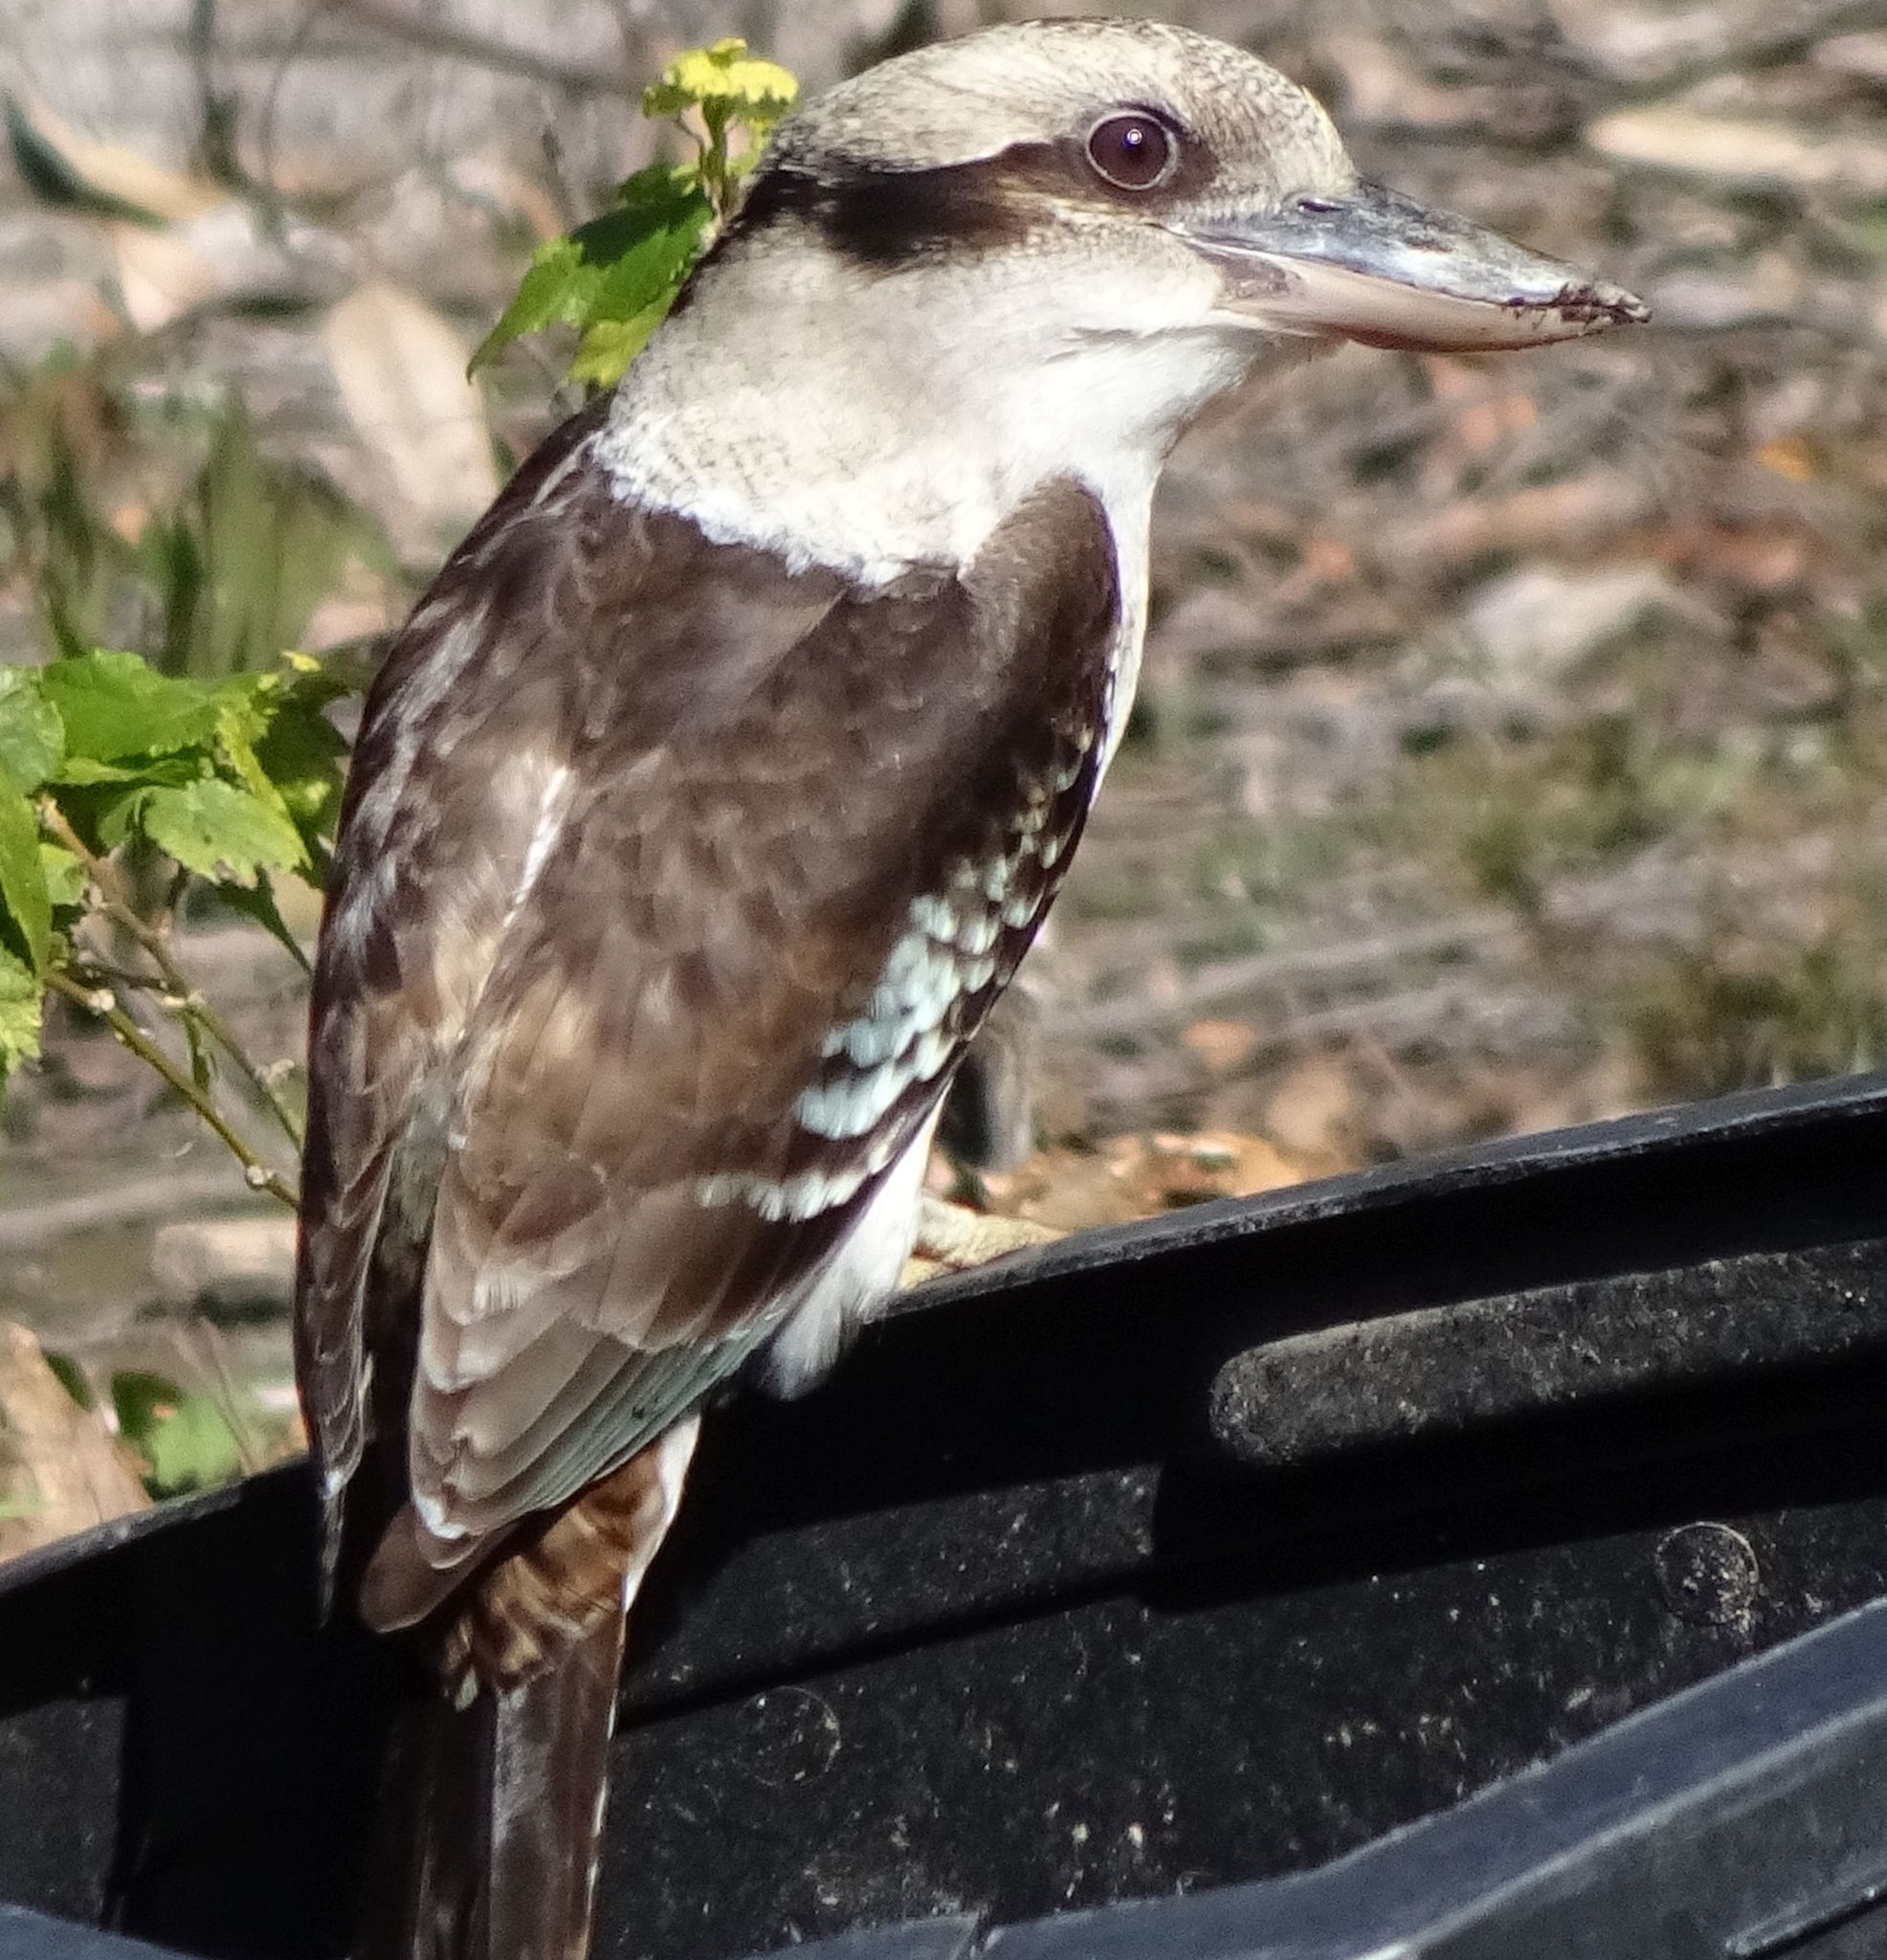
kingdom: Animalia
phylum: Chordata
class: Aves
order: Coraciiformes
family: Alcedinidae
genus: Dacelo
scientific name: Dacelo novaeguineae
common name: Laughing kookaburra
